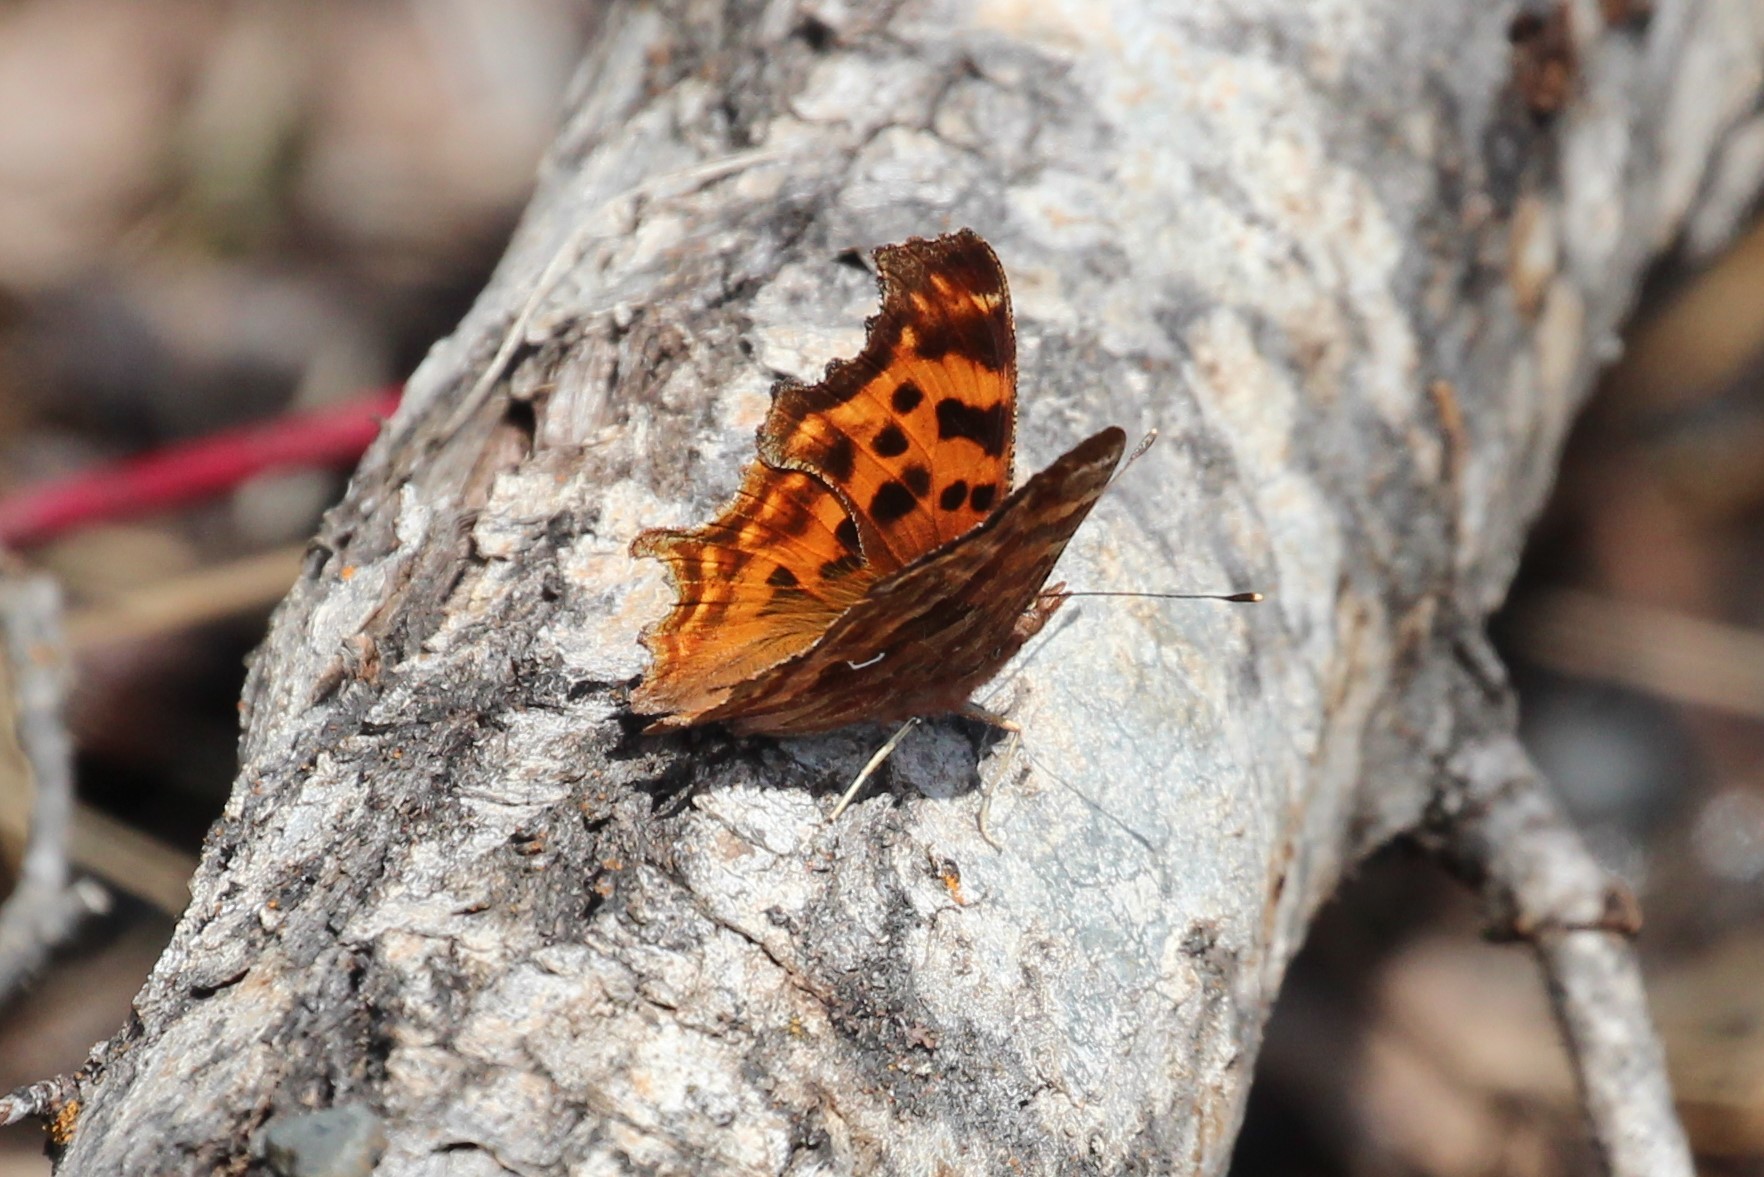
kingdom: Animalia
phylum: Arthropoda
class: Insecta
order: Lepidoptera
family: Nymphalidae
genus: Polygonia
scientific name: Polygonia satyrus
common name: Satyr angle wing
